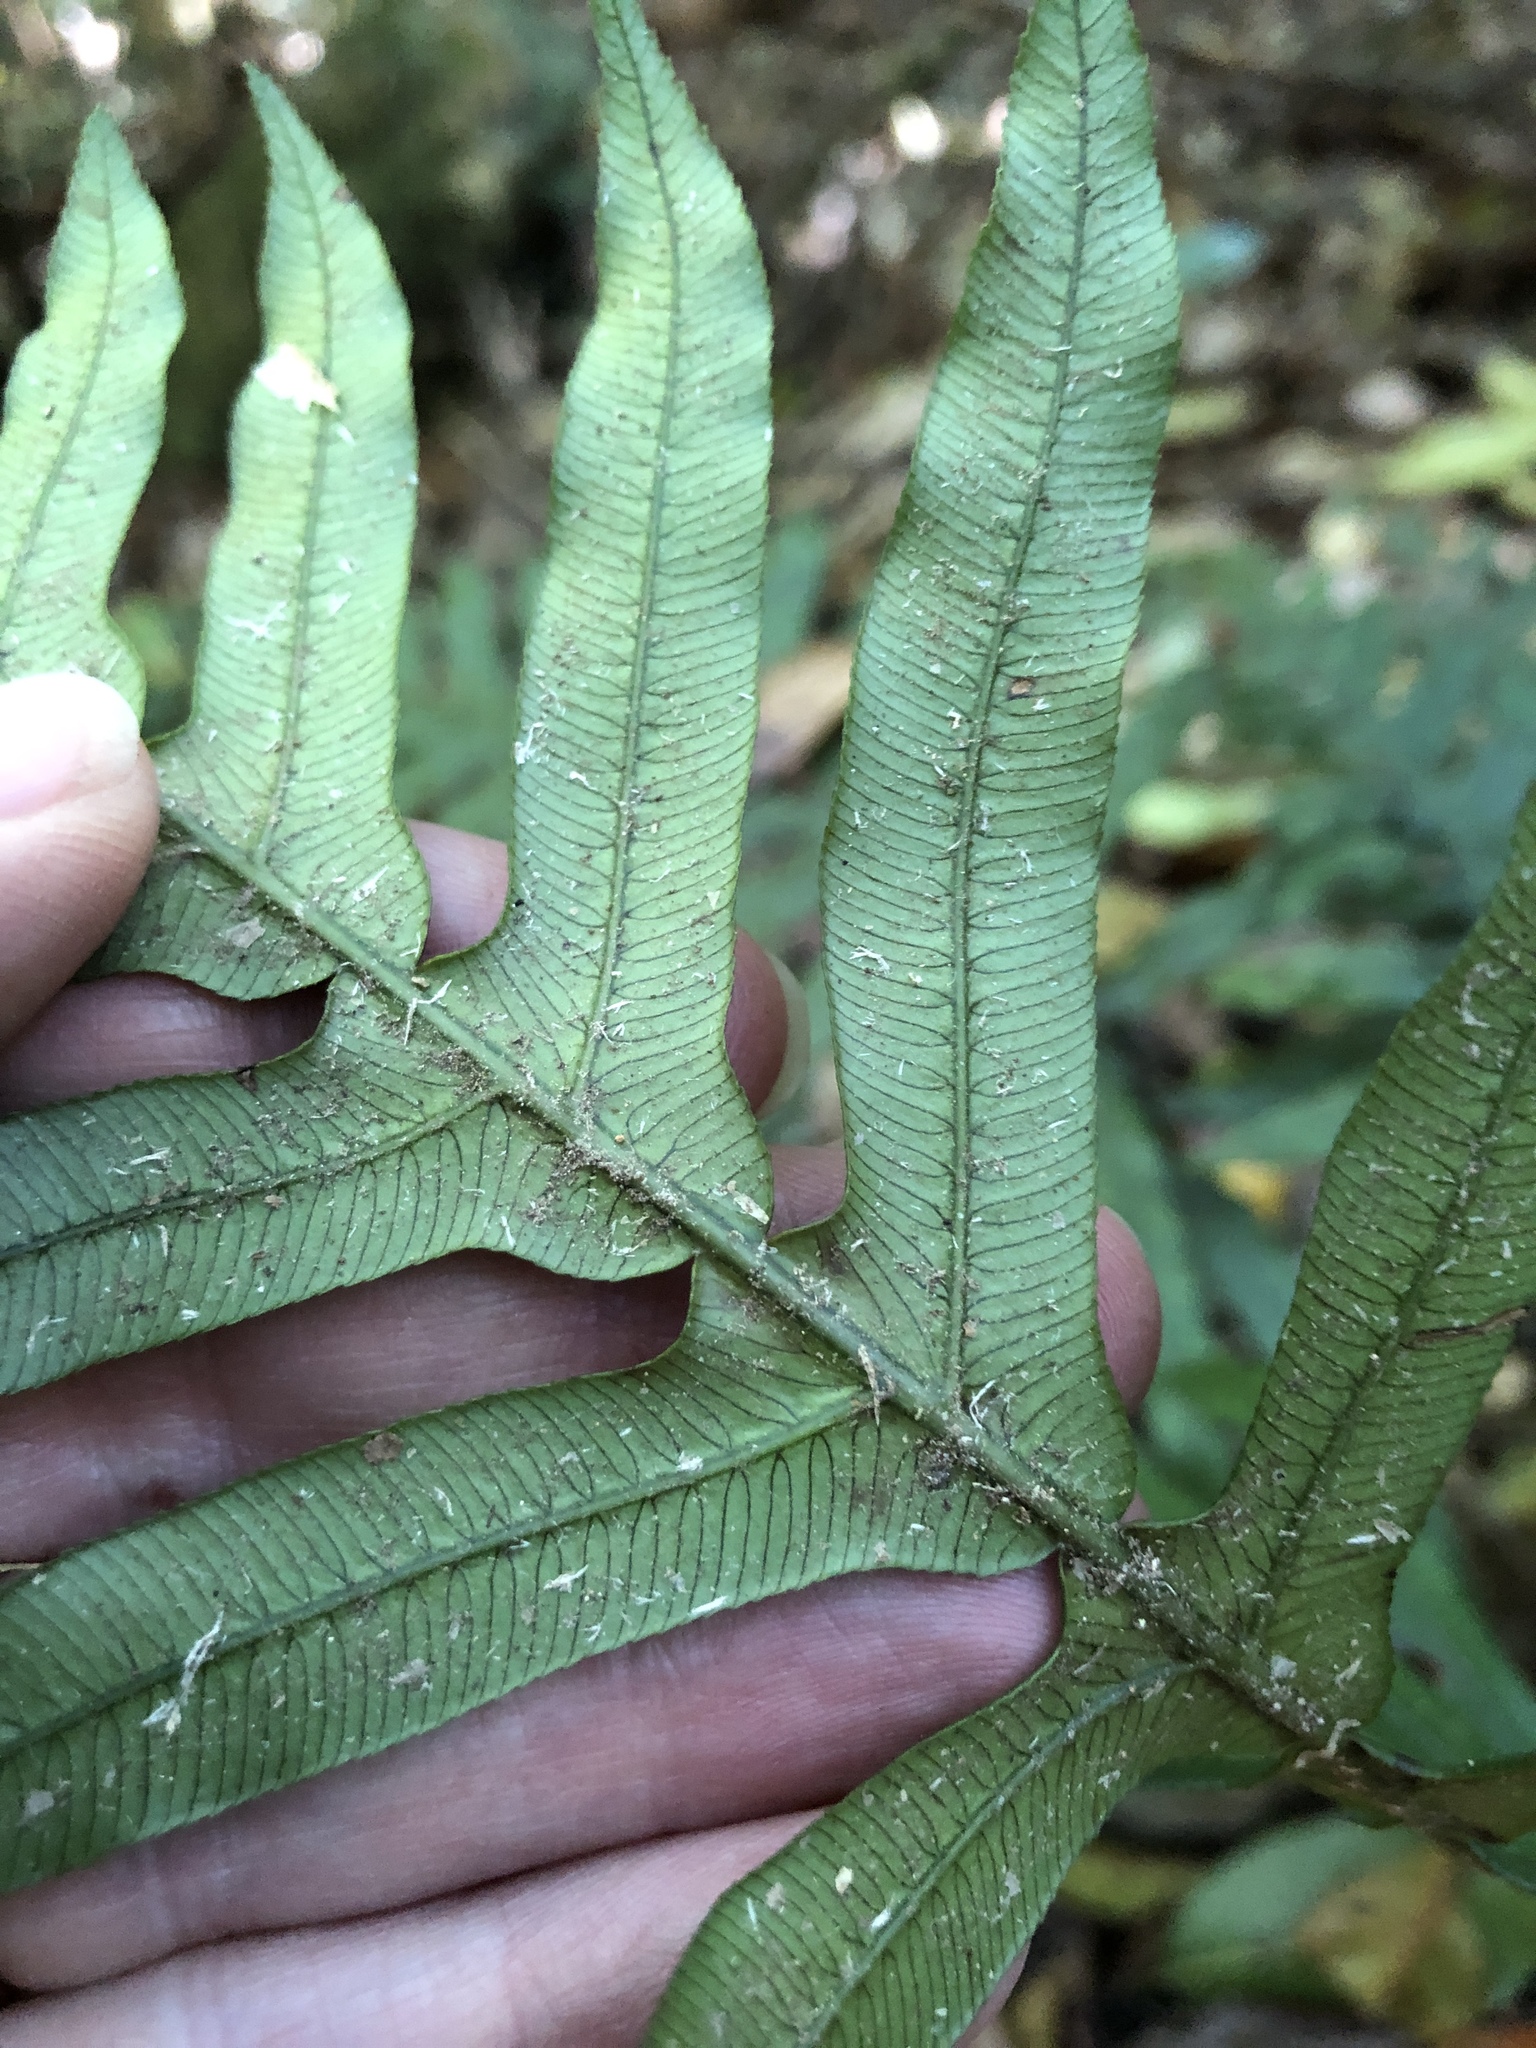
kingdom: Plantae
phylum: Tracheophyta
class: Polypodiopsida
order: Polypodiales
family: Blechnaceae
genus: Oceaniopteris
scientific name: Oceaniopteris cartilaginea
